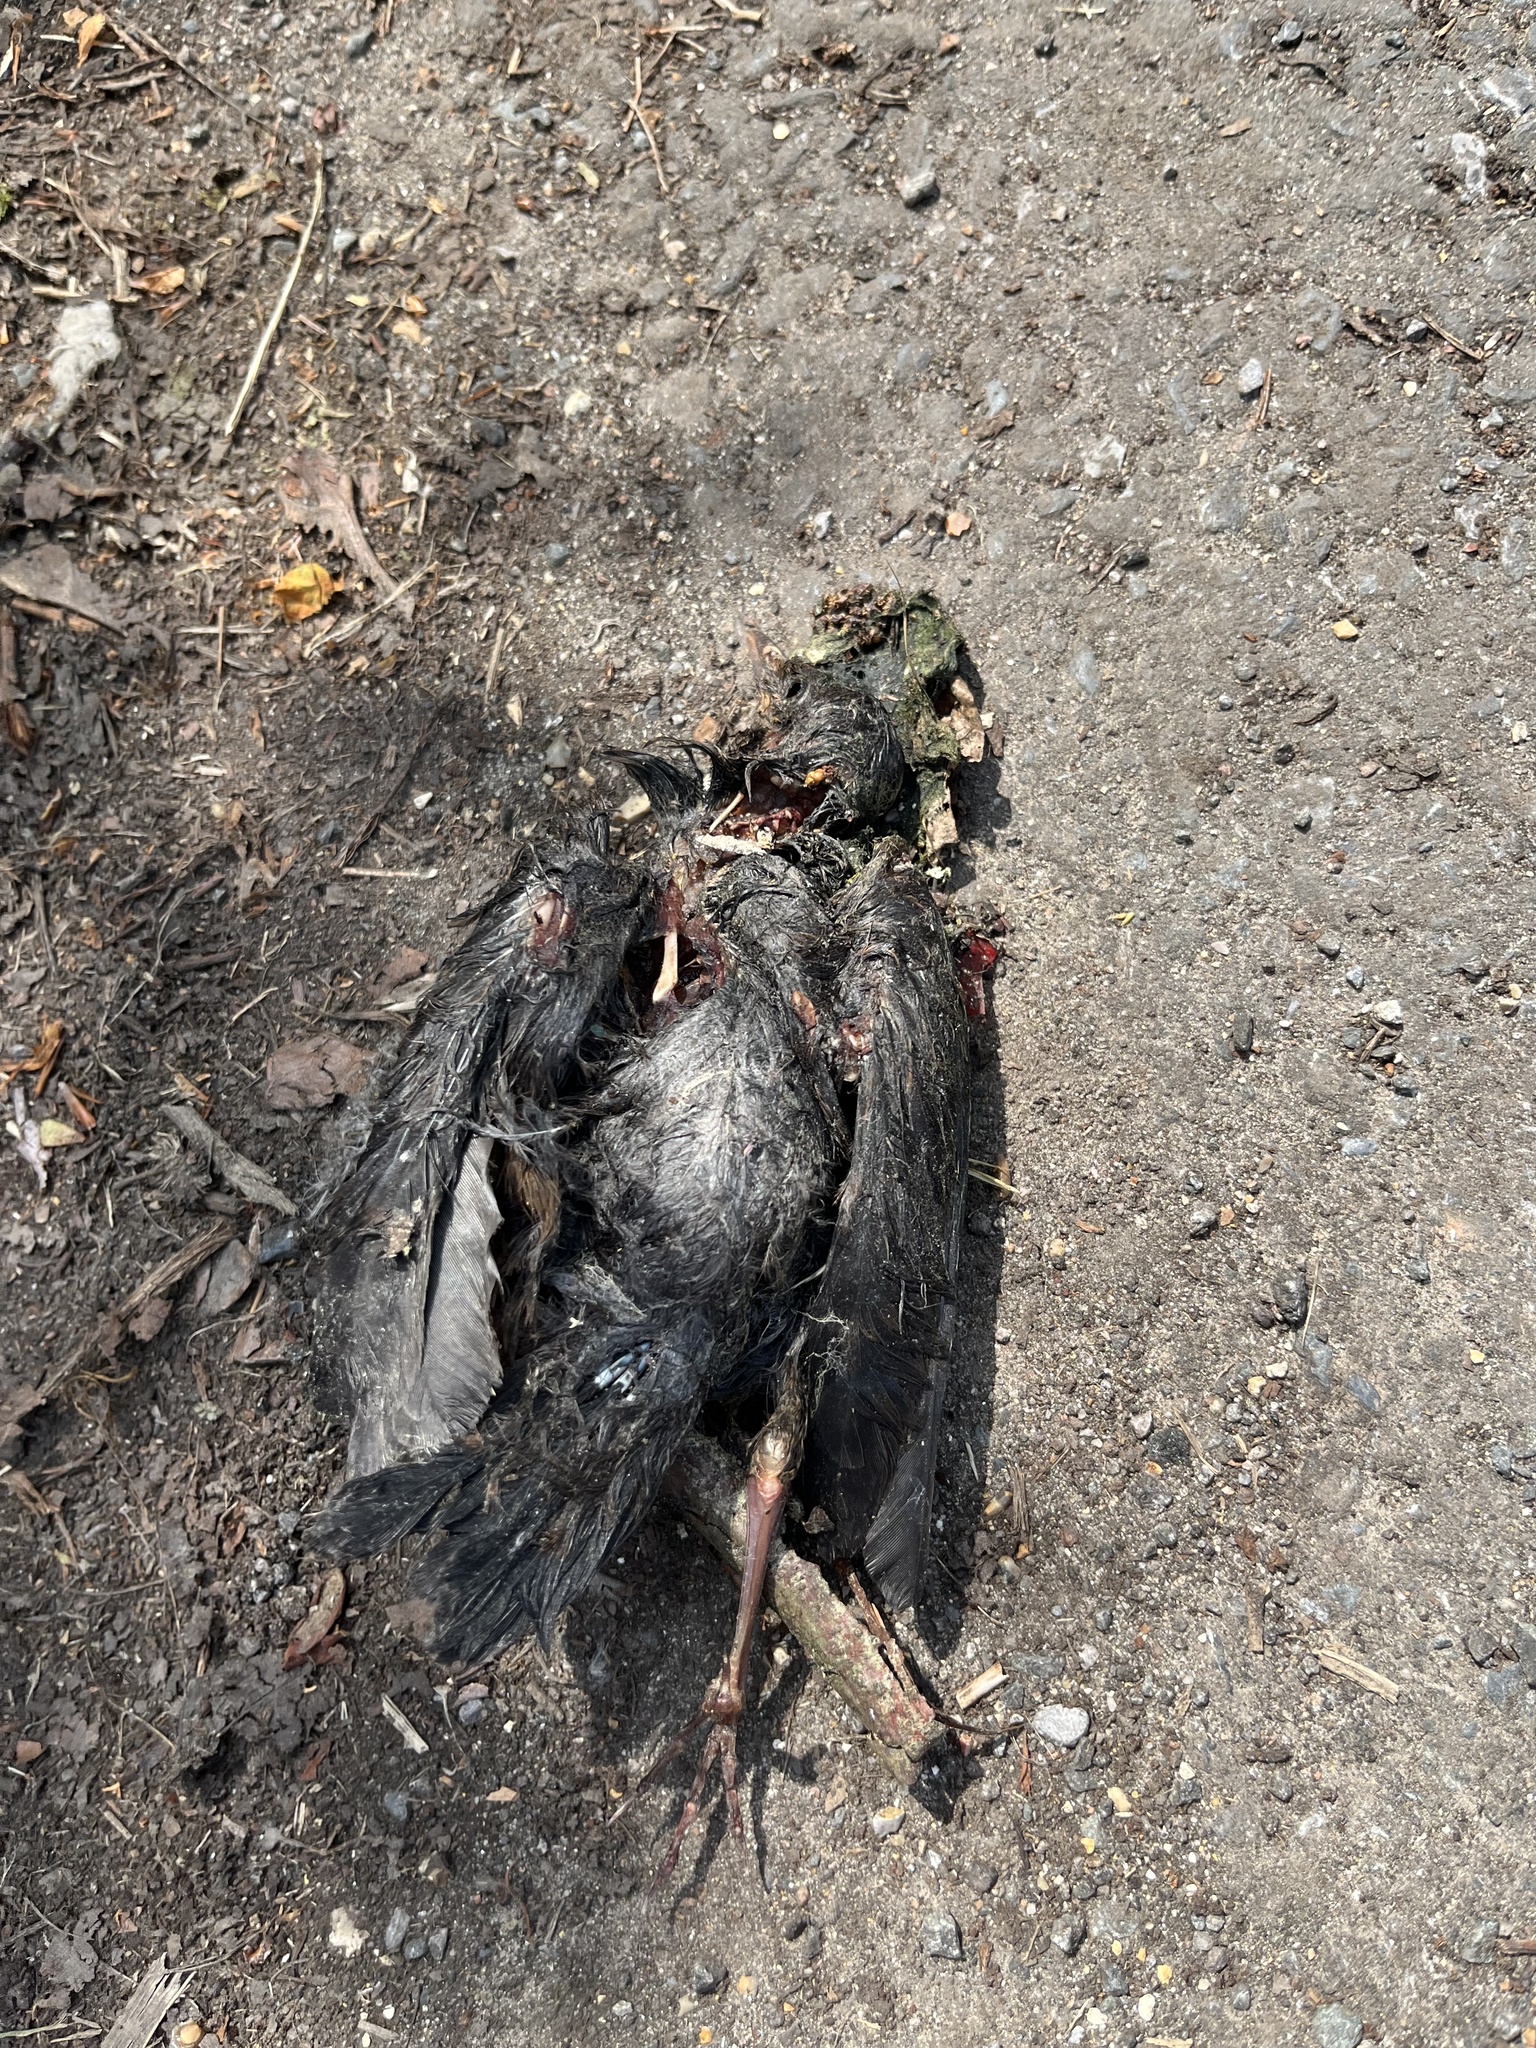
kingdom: Animalia
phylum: Chordata
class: Aves
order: Passeriformes
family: Turdidae
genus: Turdus
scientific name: Turdus merula
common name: Common blackbird
